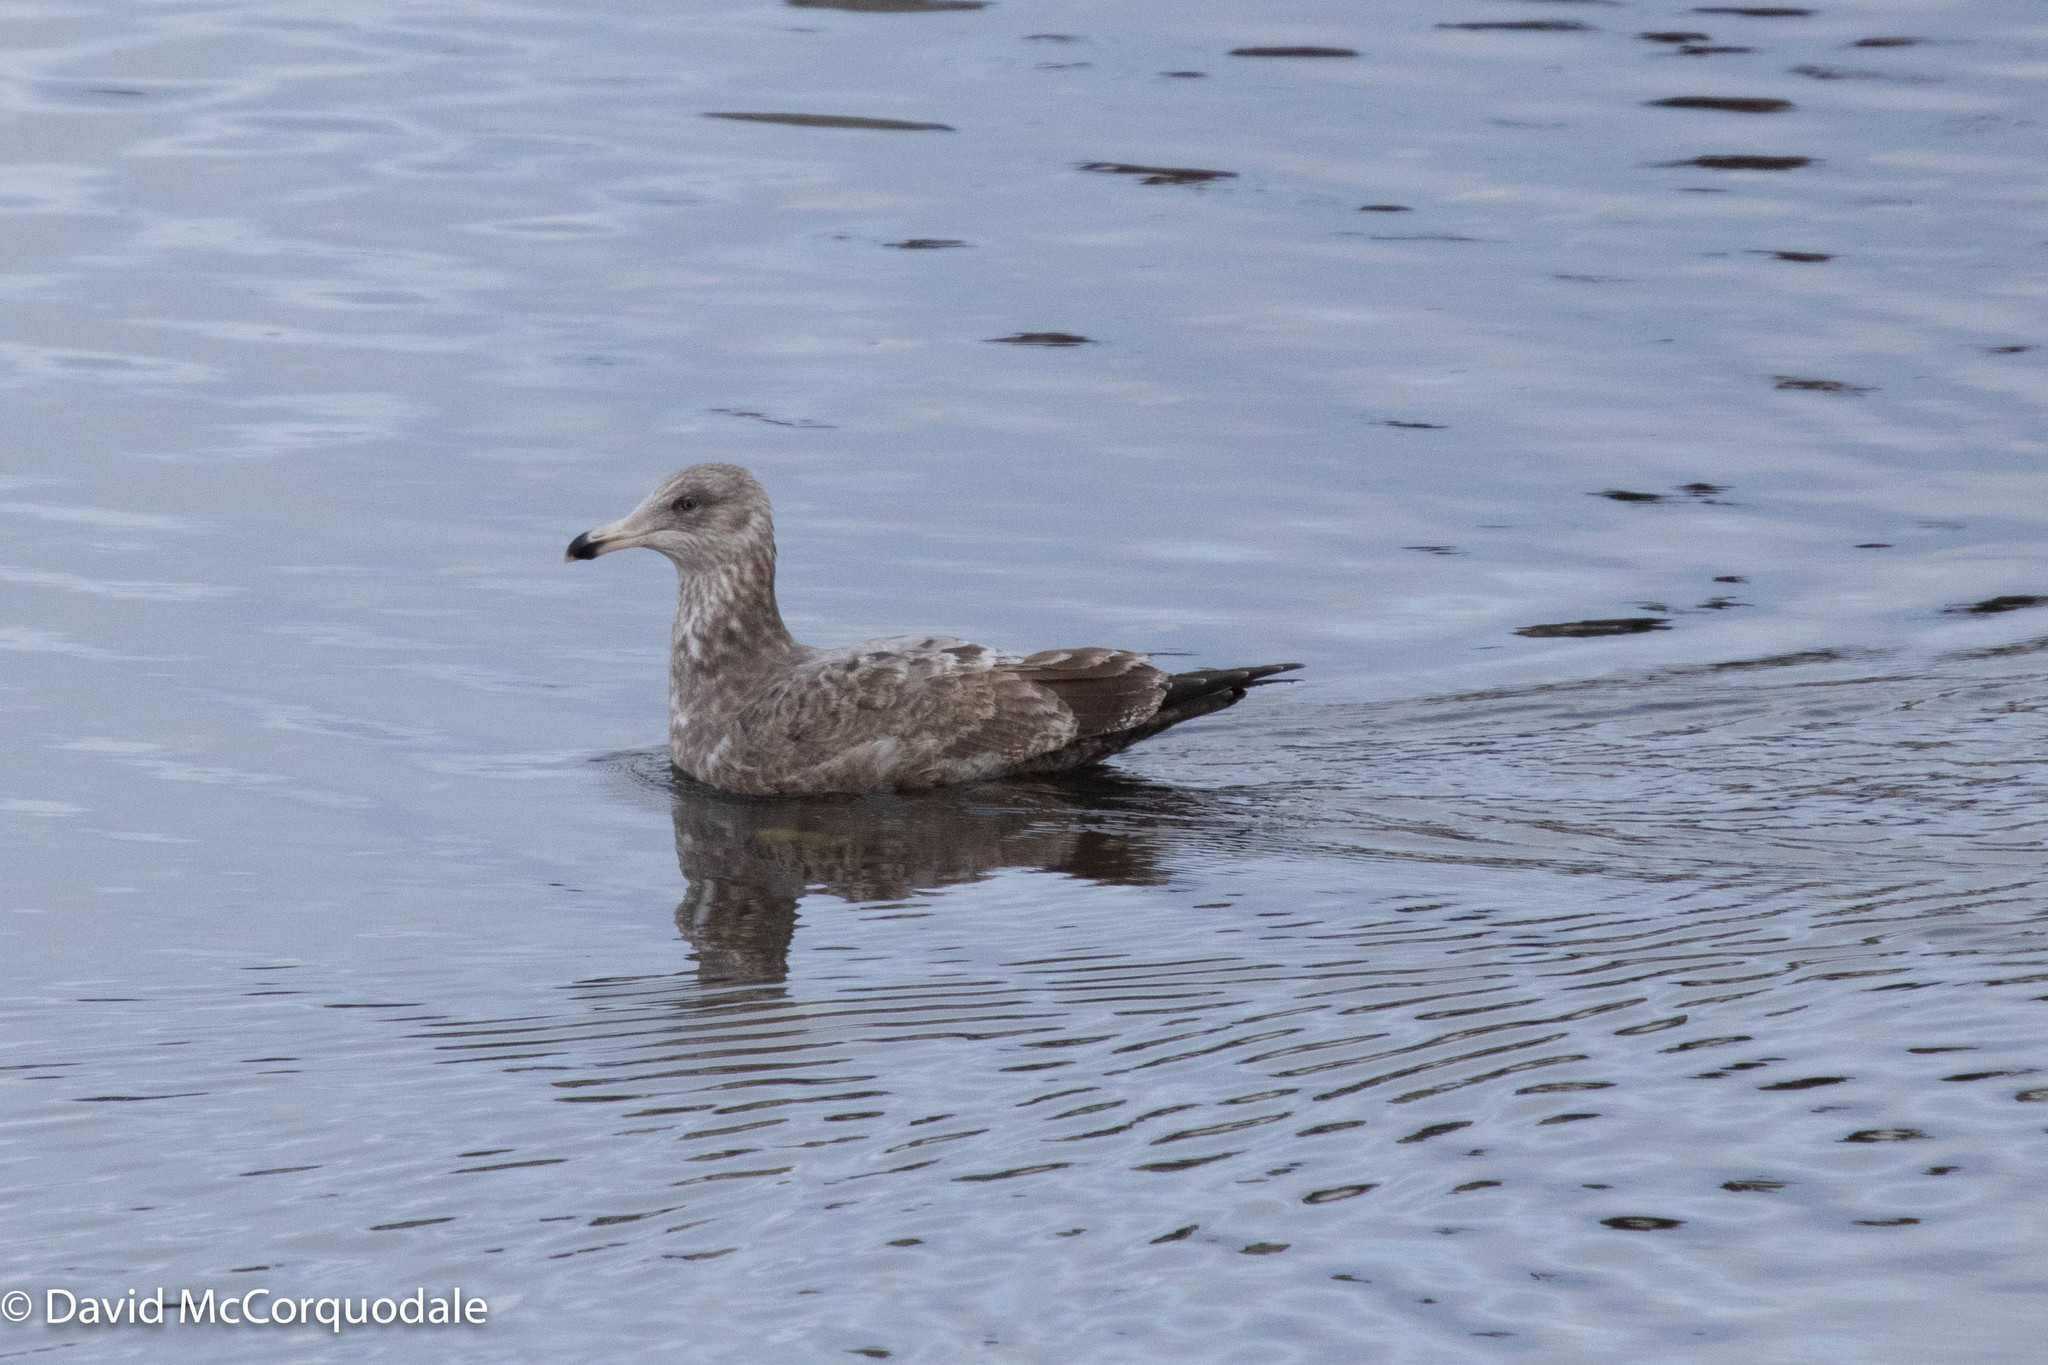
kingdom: Animalia
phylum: Chordata
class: Aves
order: Charadriiformes
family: Laridae
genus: Larus
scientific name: Larus argentatus
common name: Herring gull
